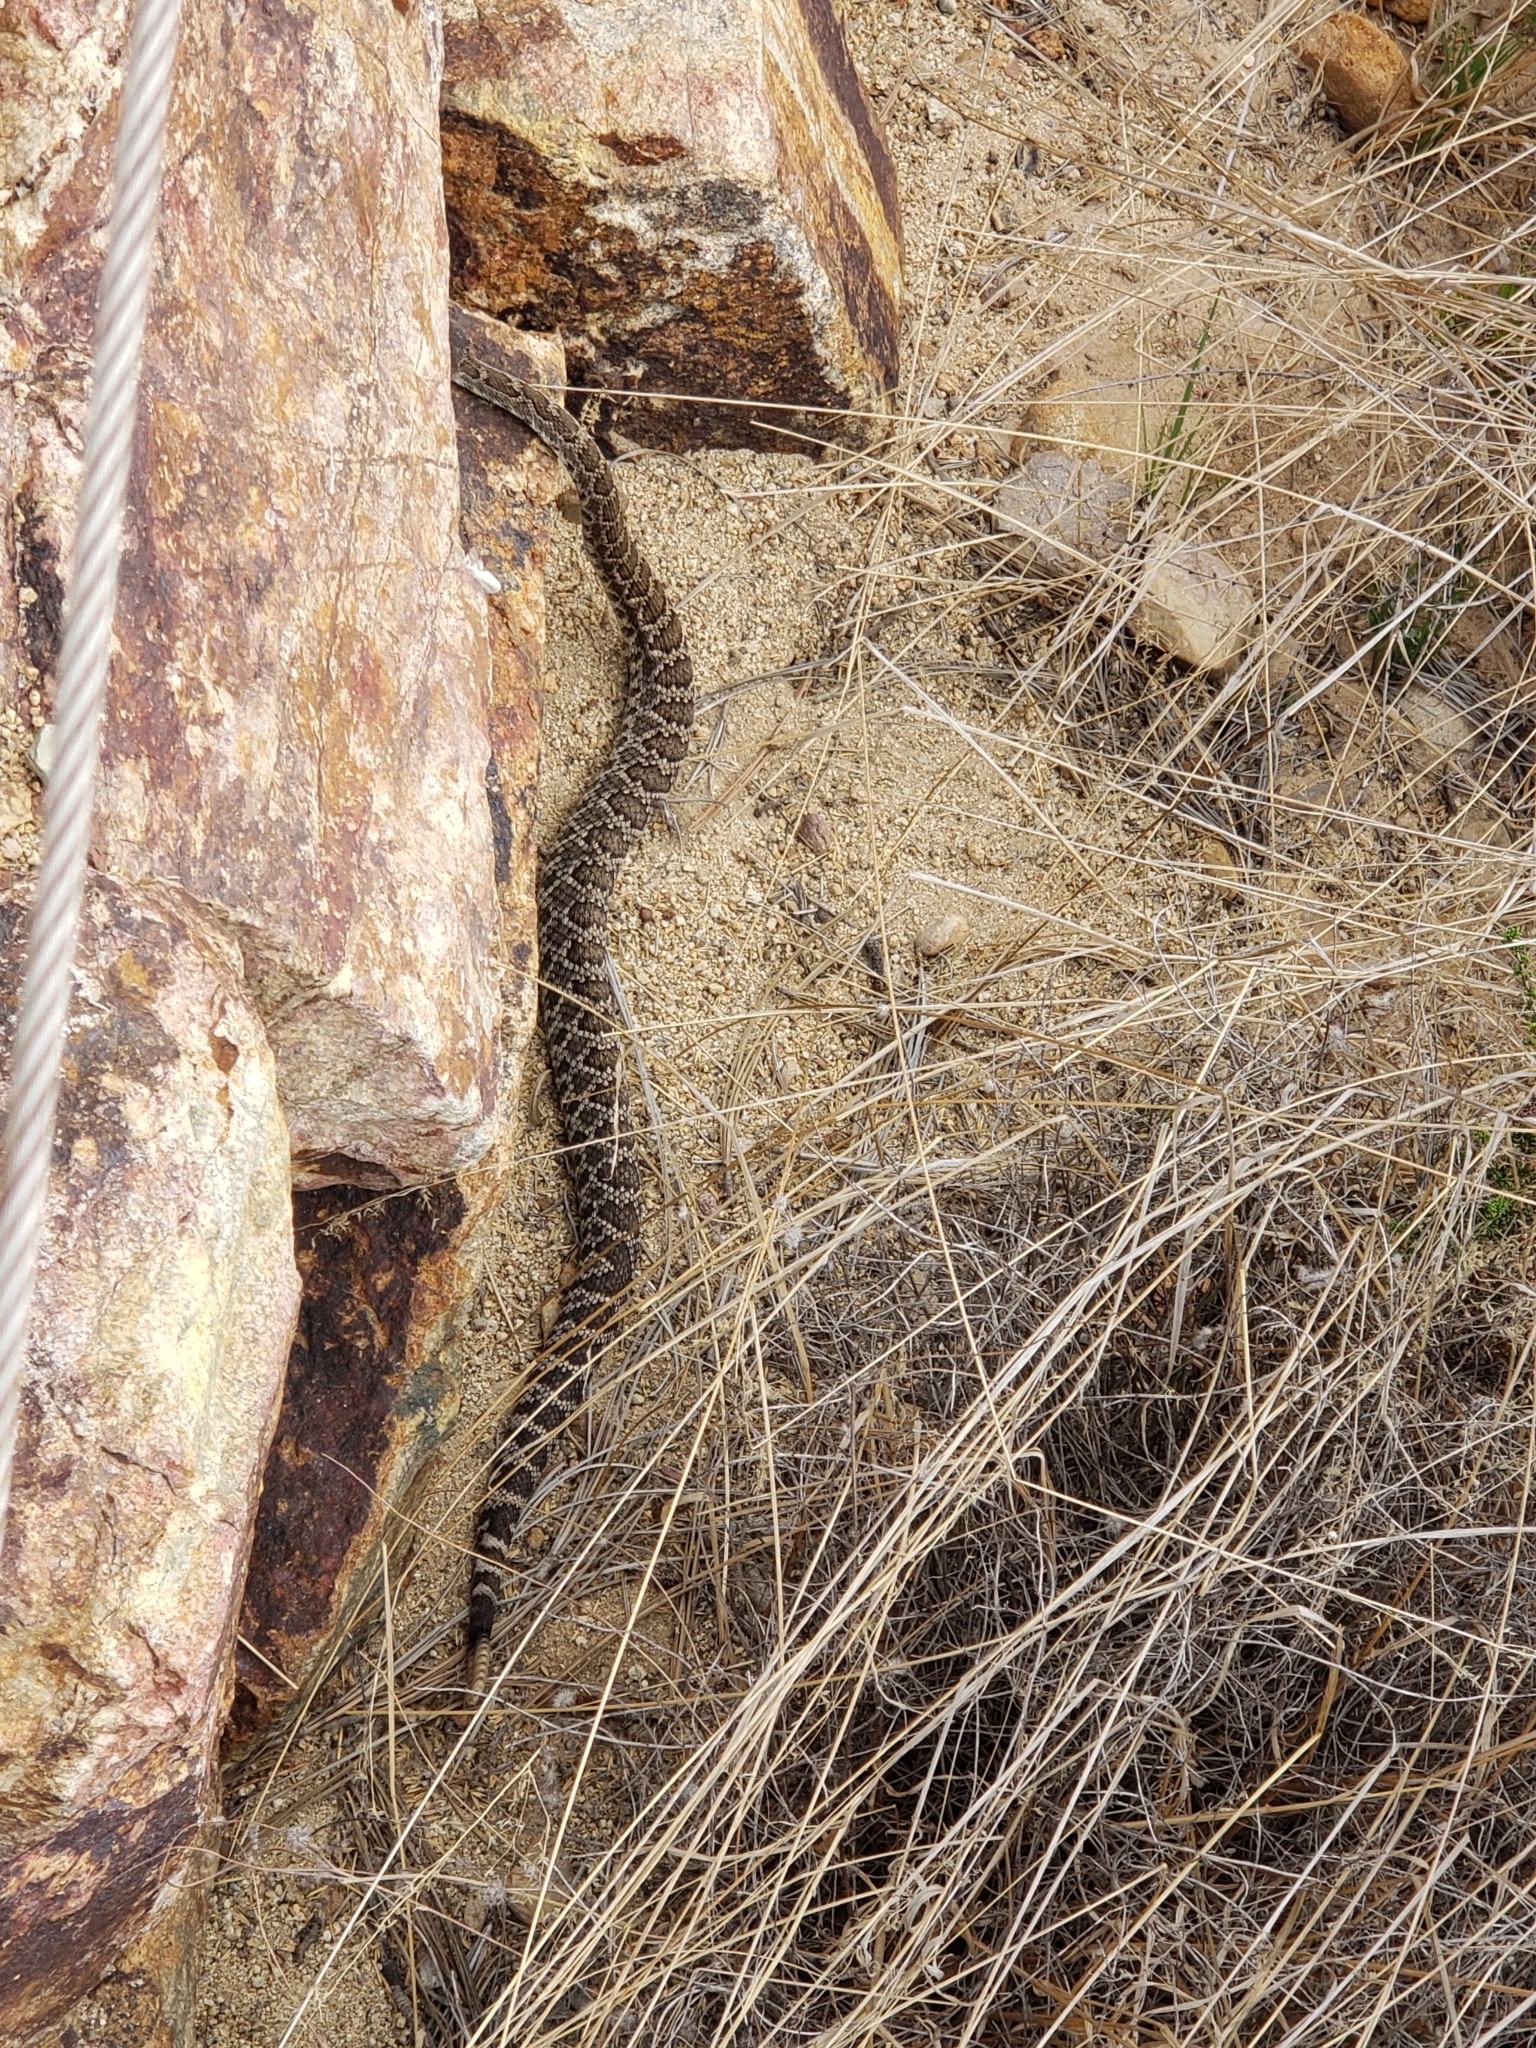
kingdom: Animalia
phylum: Chordata
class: Squamata
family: Viperidae
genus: Crotalus
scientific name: Crotalus oreganus
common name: Abyssus
